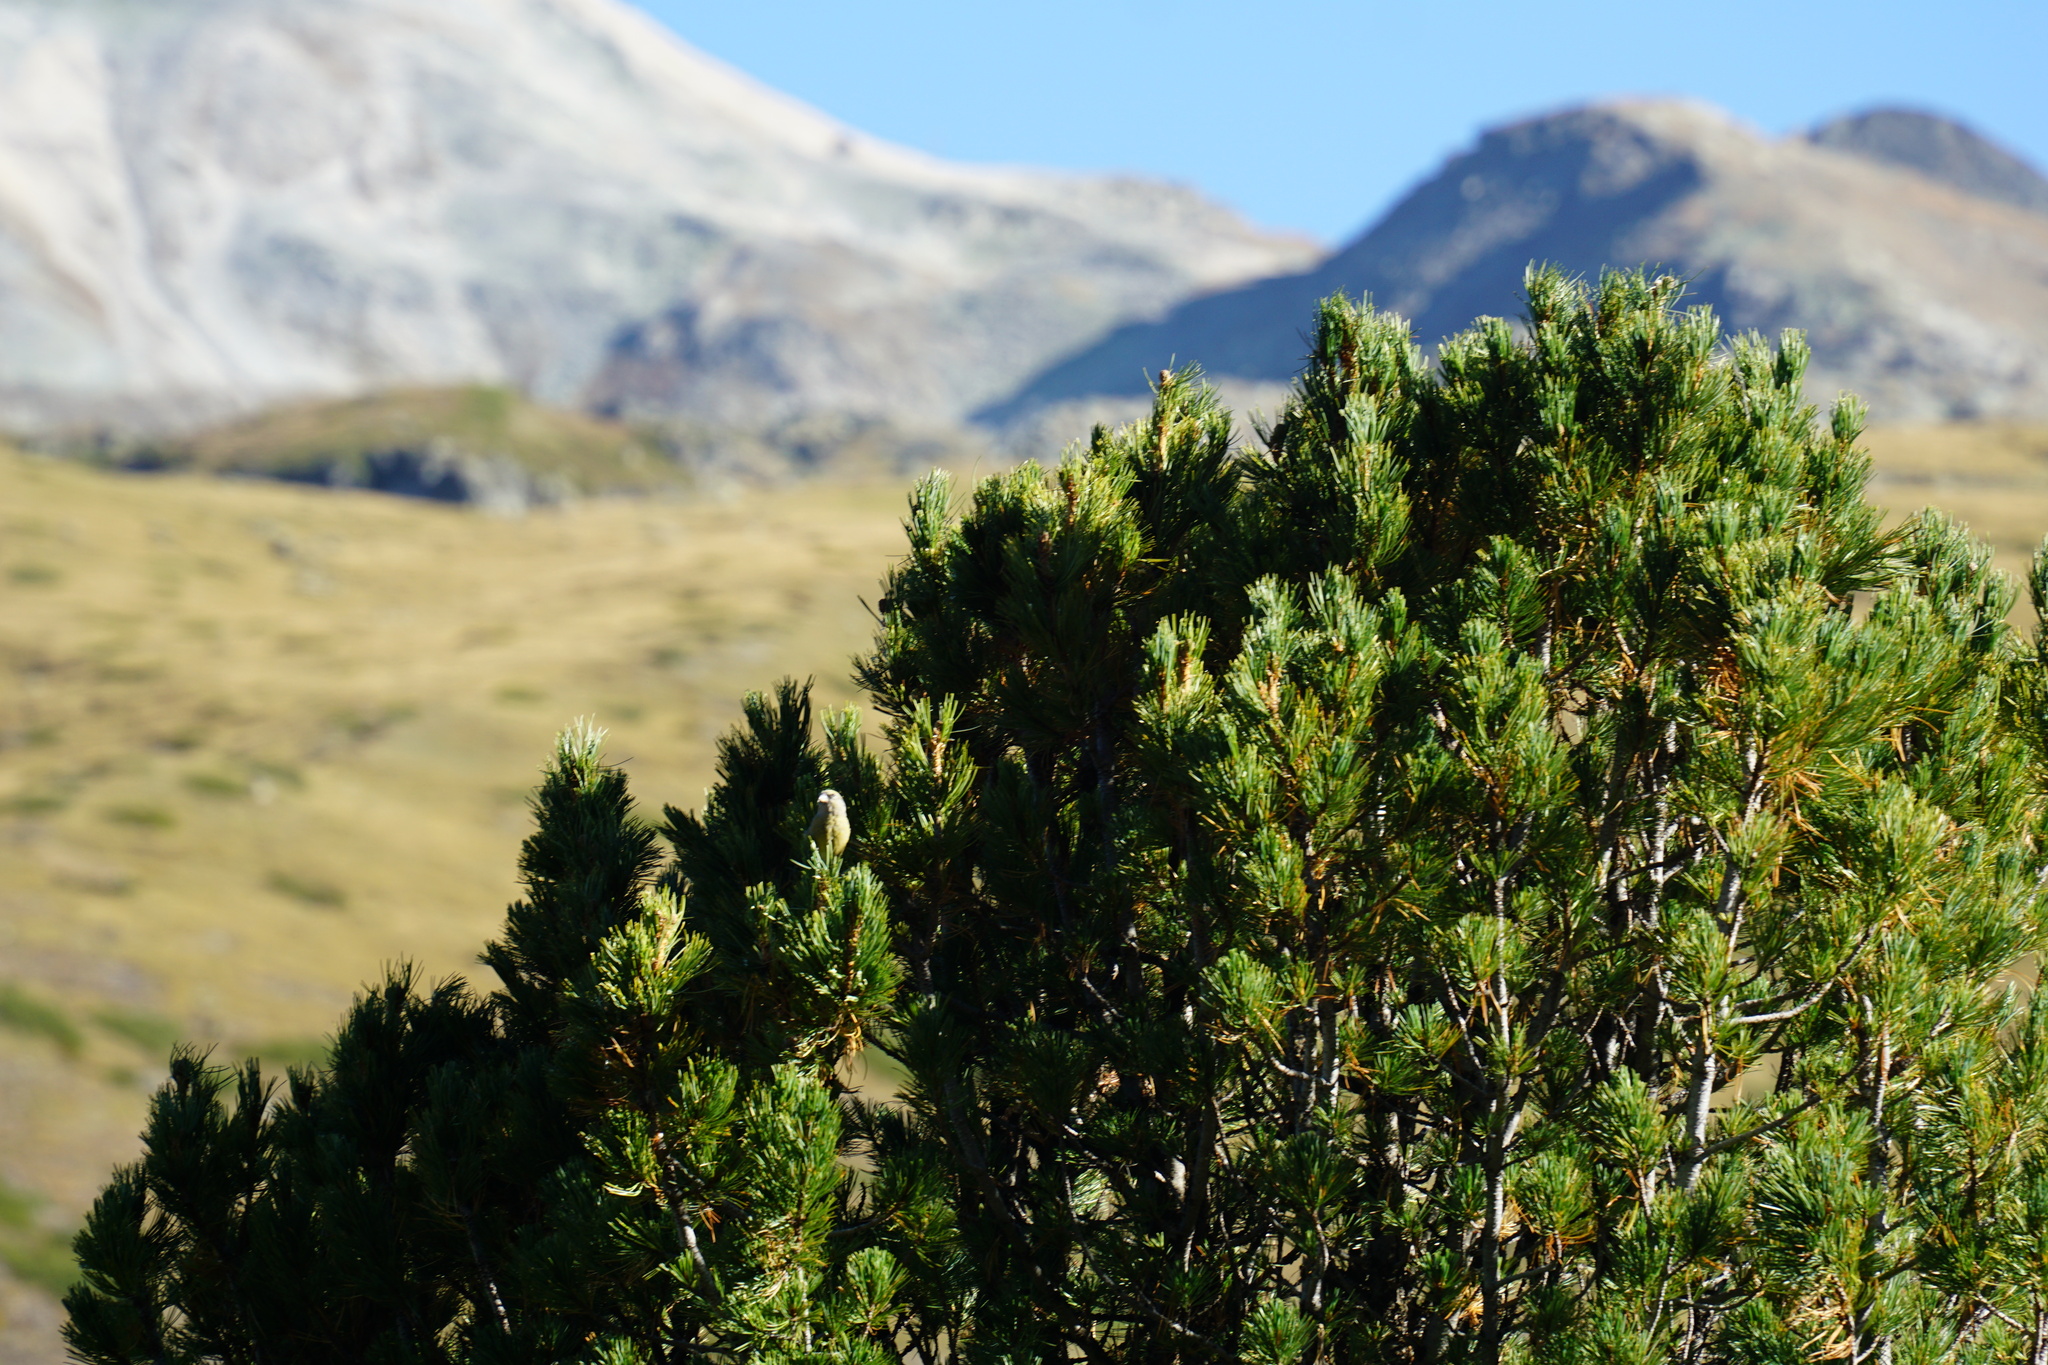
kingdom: Animalia
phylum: Chordata
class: Aves
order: Passeriformes
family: Fringillidae
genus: Loxia
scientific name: Loxia curvirostra
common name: Red crossbill
